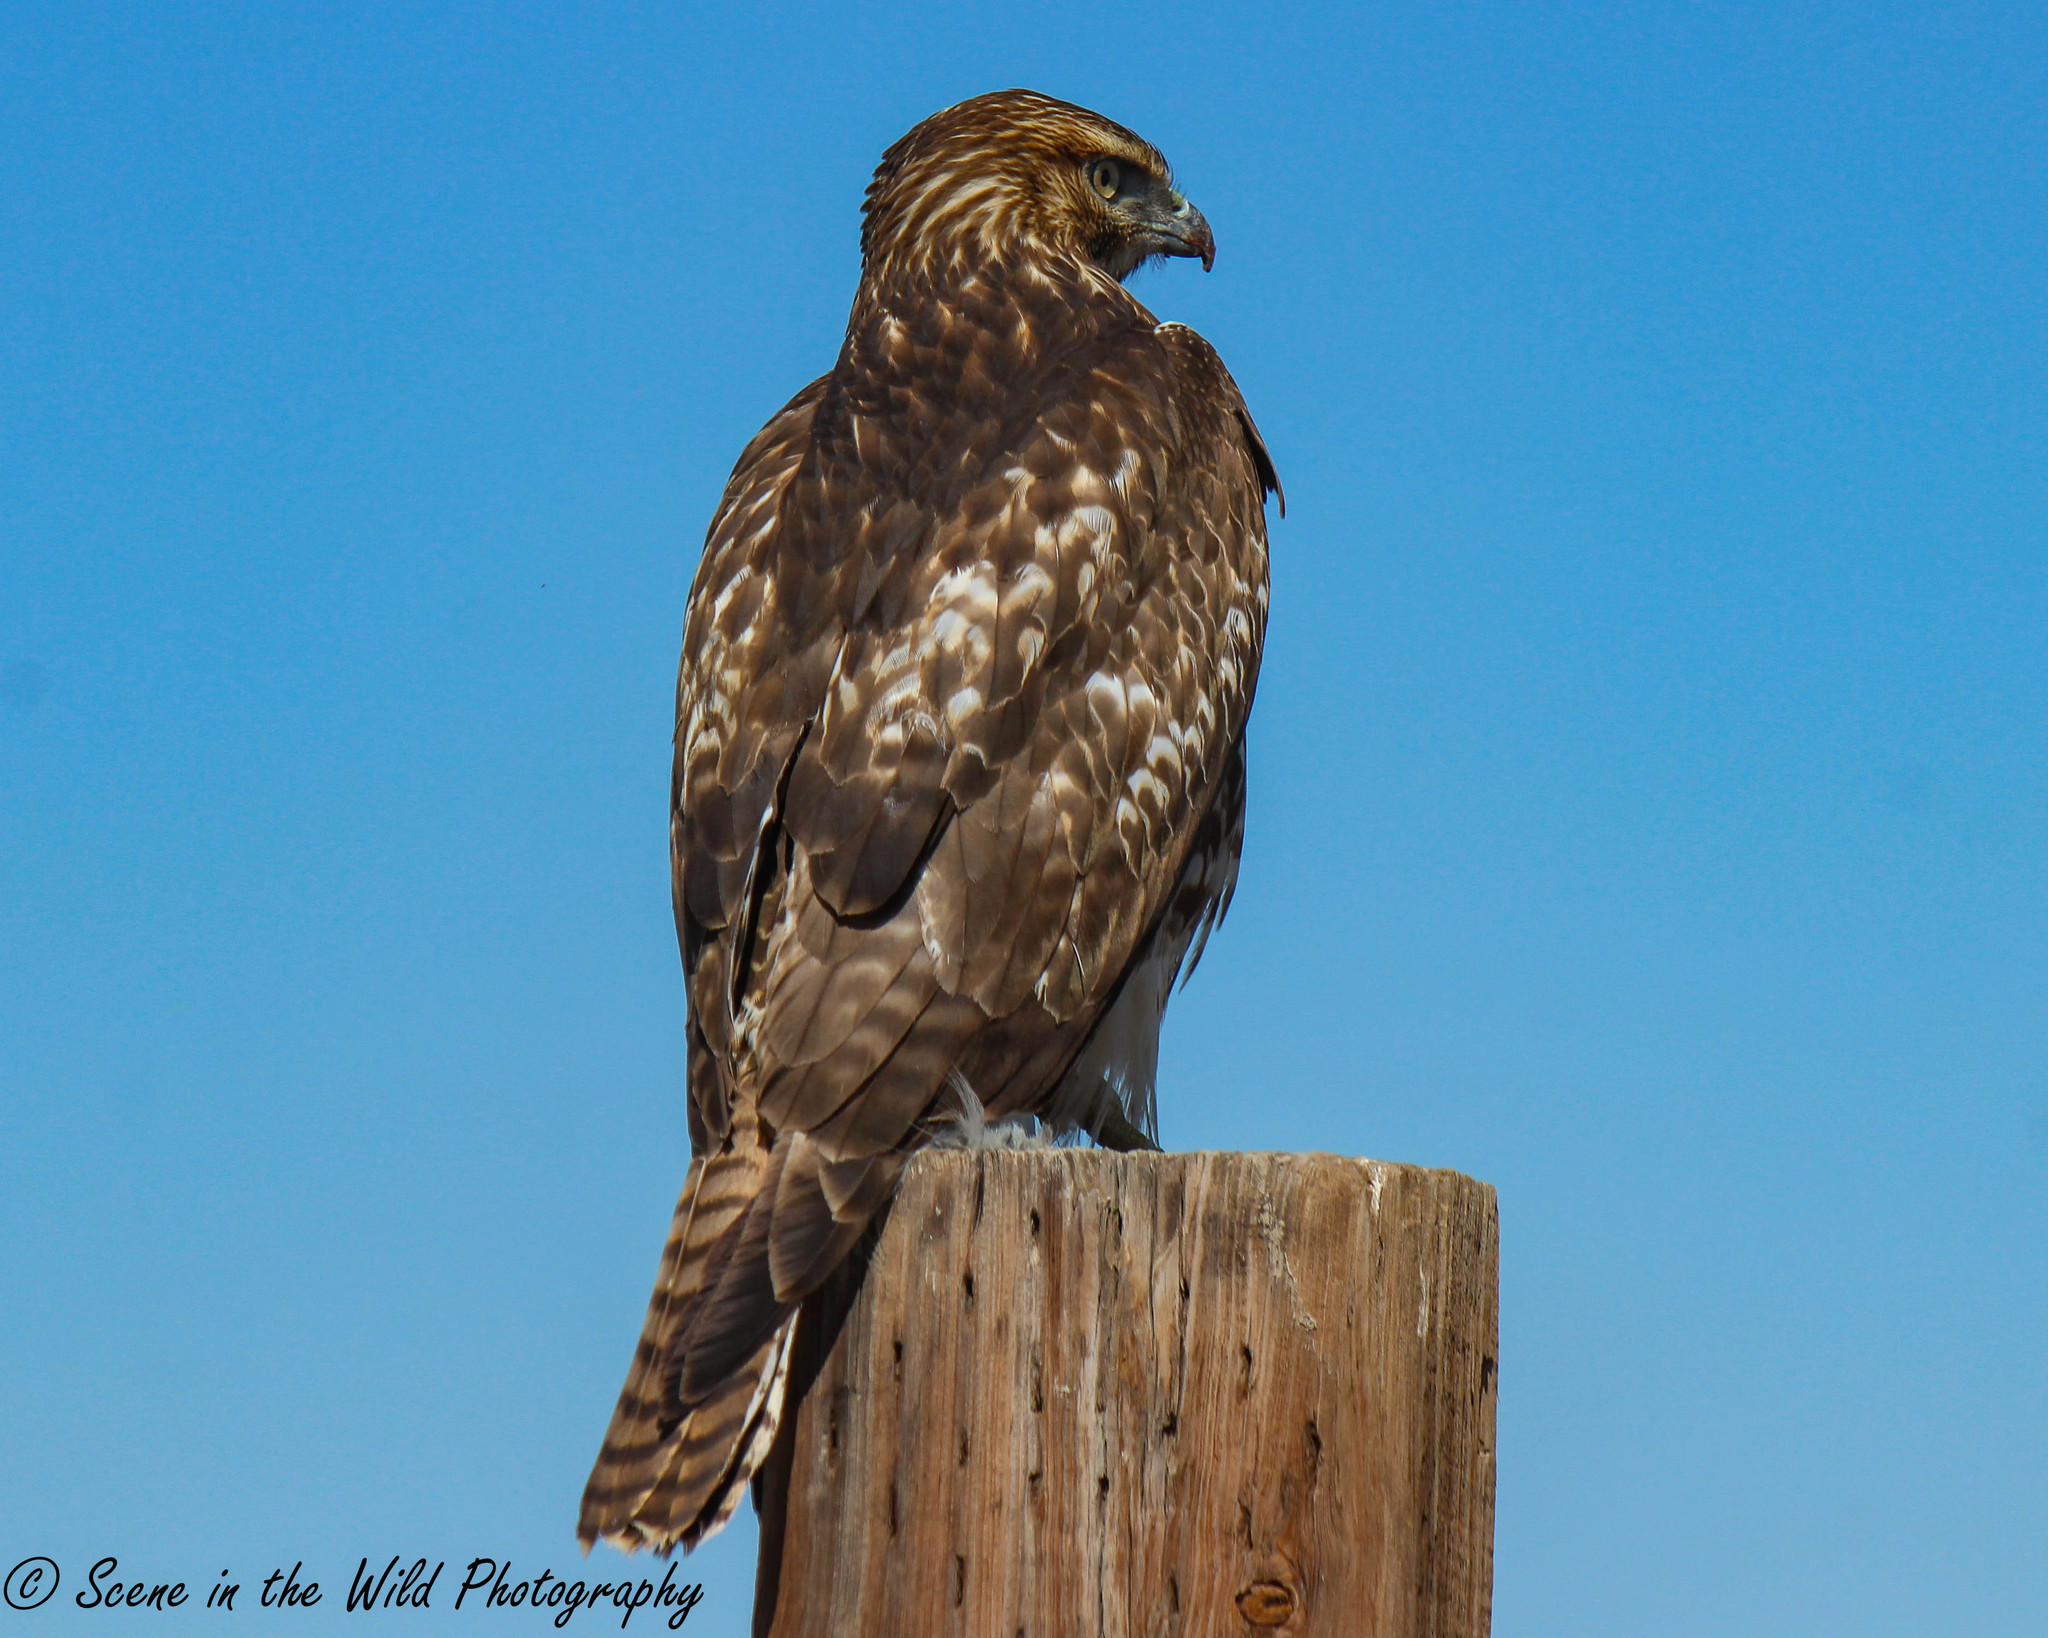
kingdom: Animalia
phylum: Chordata
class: Aves
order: Accipitriformes
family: Accipitridae
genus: Buteo
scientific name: Buteo jamaicensis
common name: Red-tailed hawk
